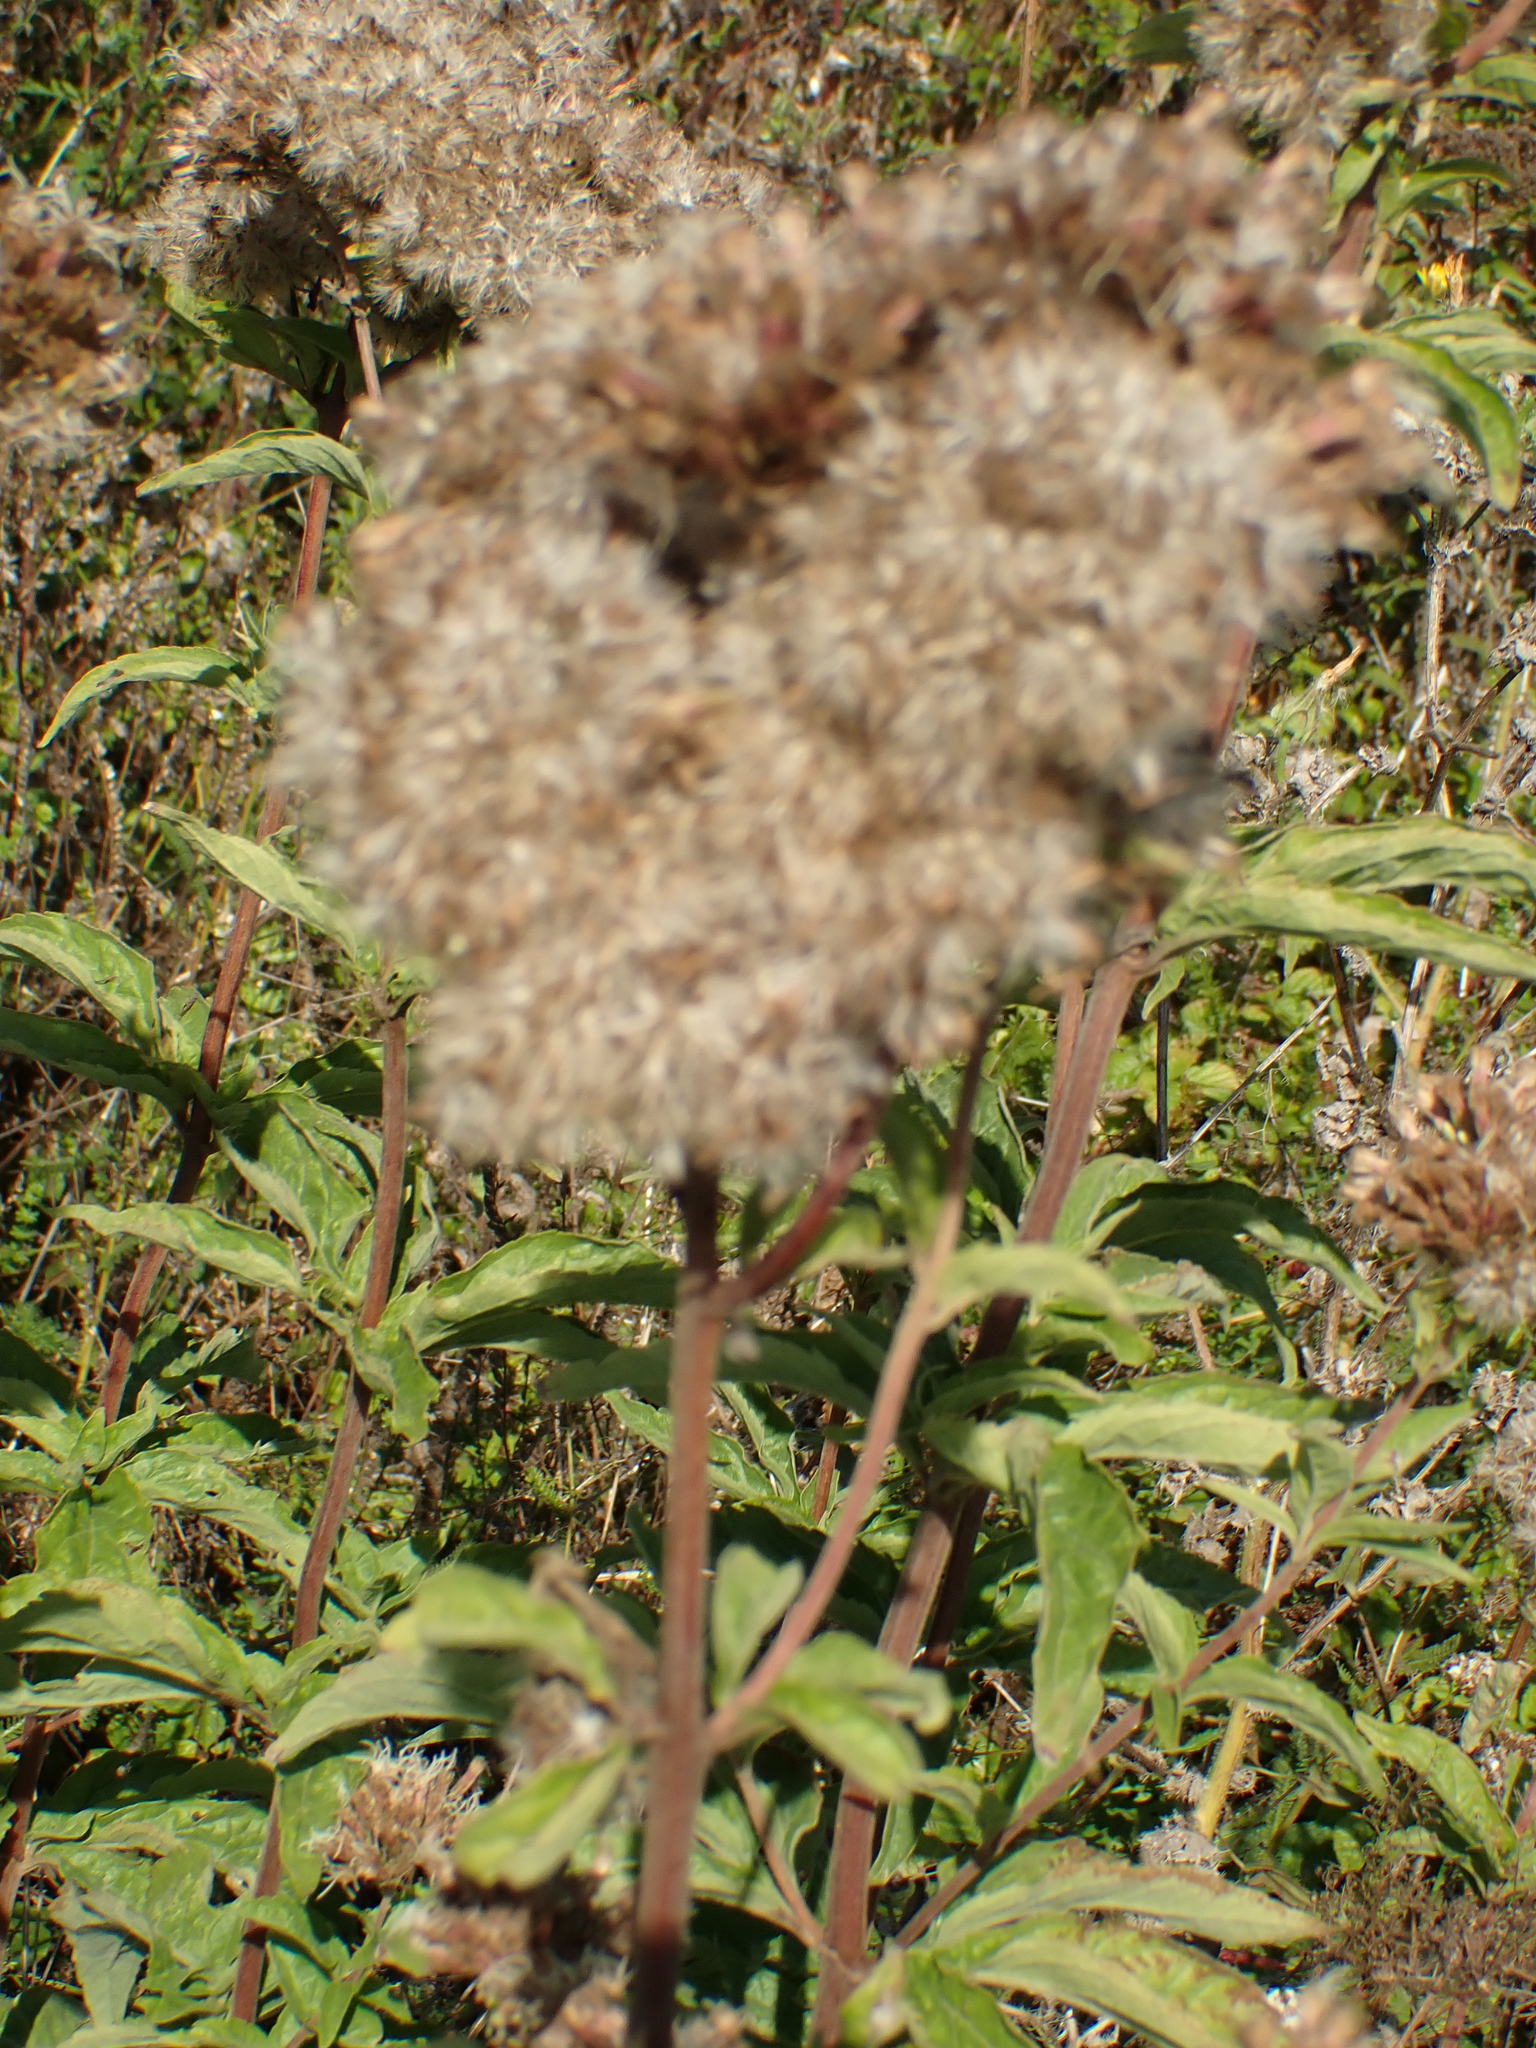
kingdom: Plantae
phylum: Tracheophyta
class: Magnoliopsida
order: Asterales
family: Asteraceae
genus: Eupatorium
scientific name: Eupatorium cannabinum
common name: Hemp-agrimony
